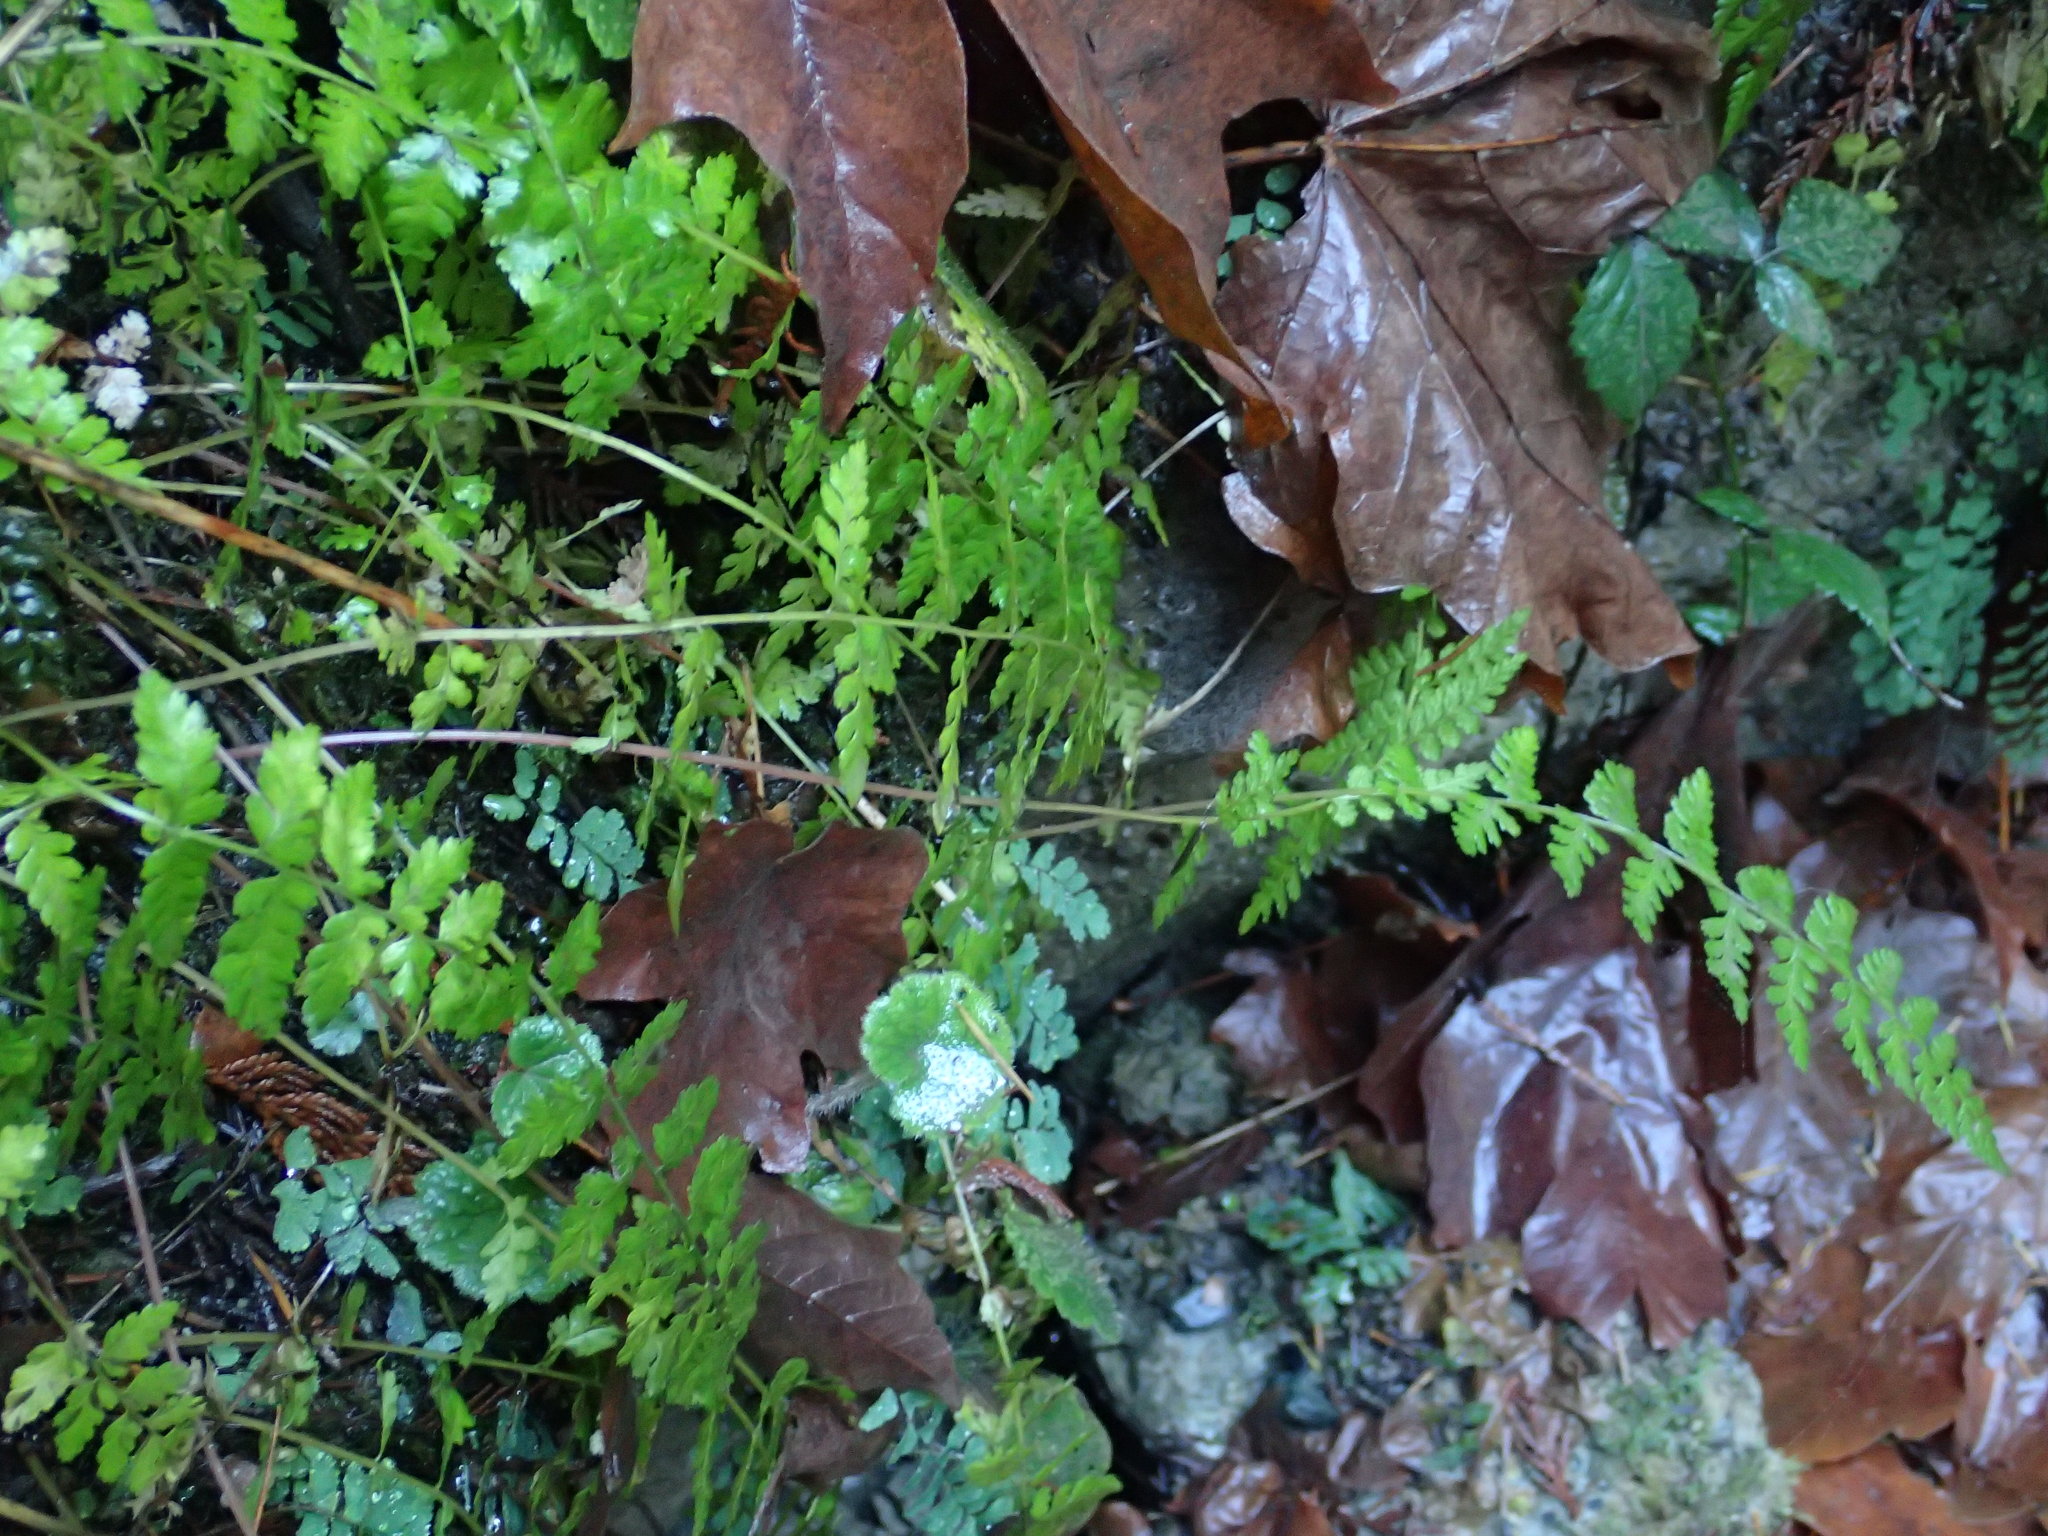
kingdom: Plantae
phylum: Tracheophyta
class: Polypodiopsida
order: Polypodiales
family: Cystopteridaceae
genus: Cystopteris
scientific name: Cystopteris fragilis
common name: Brittle bladder fern
